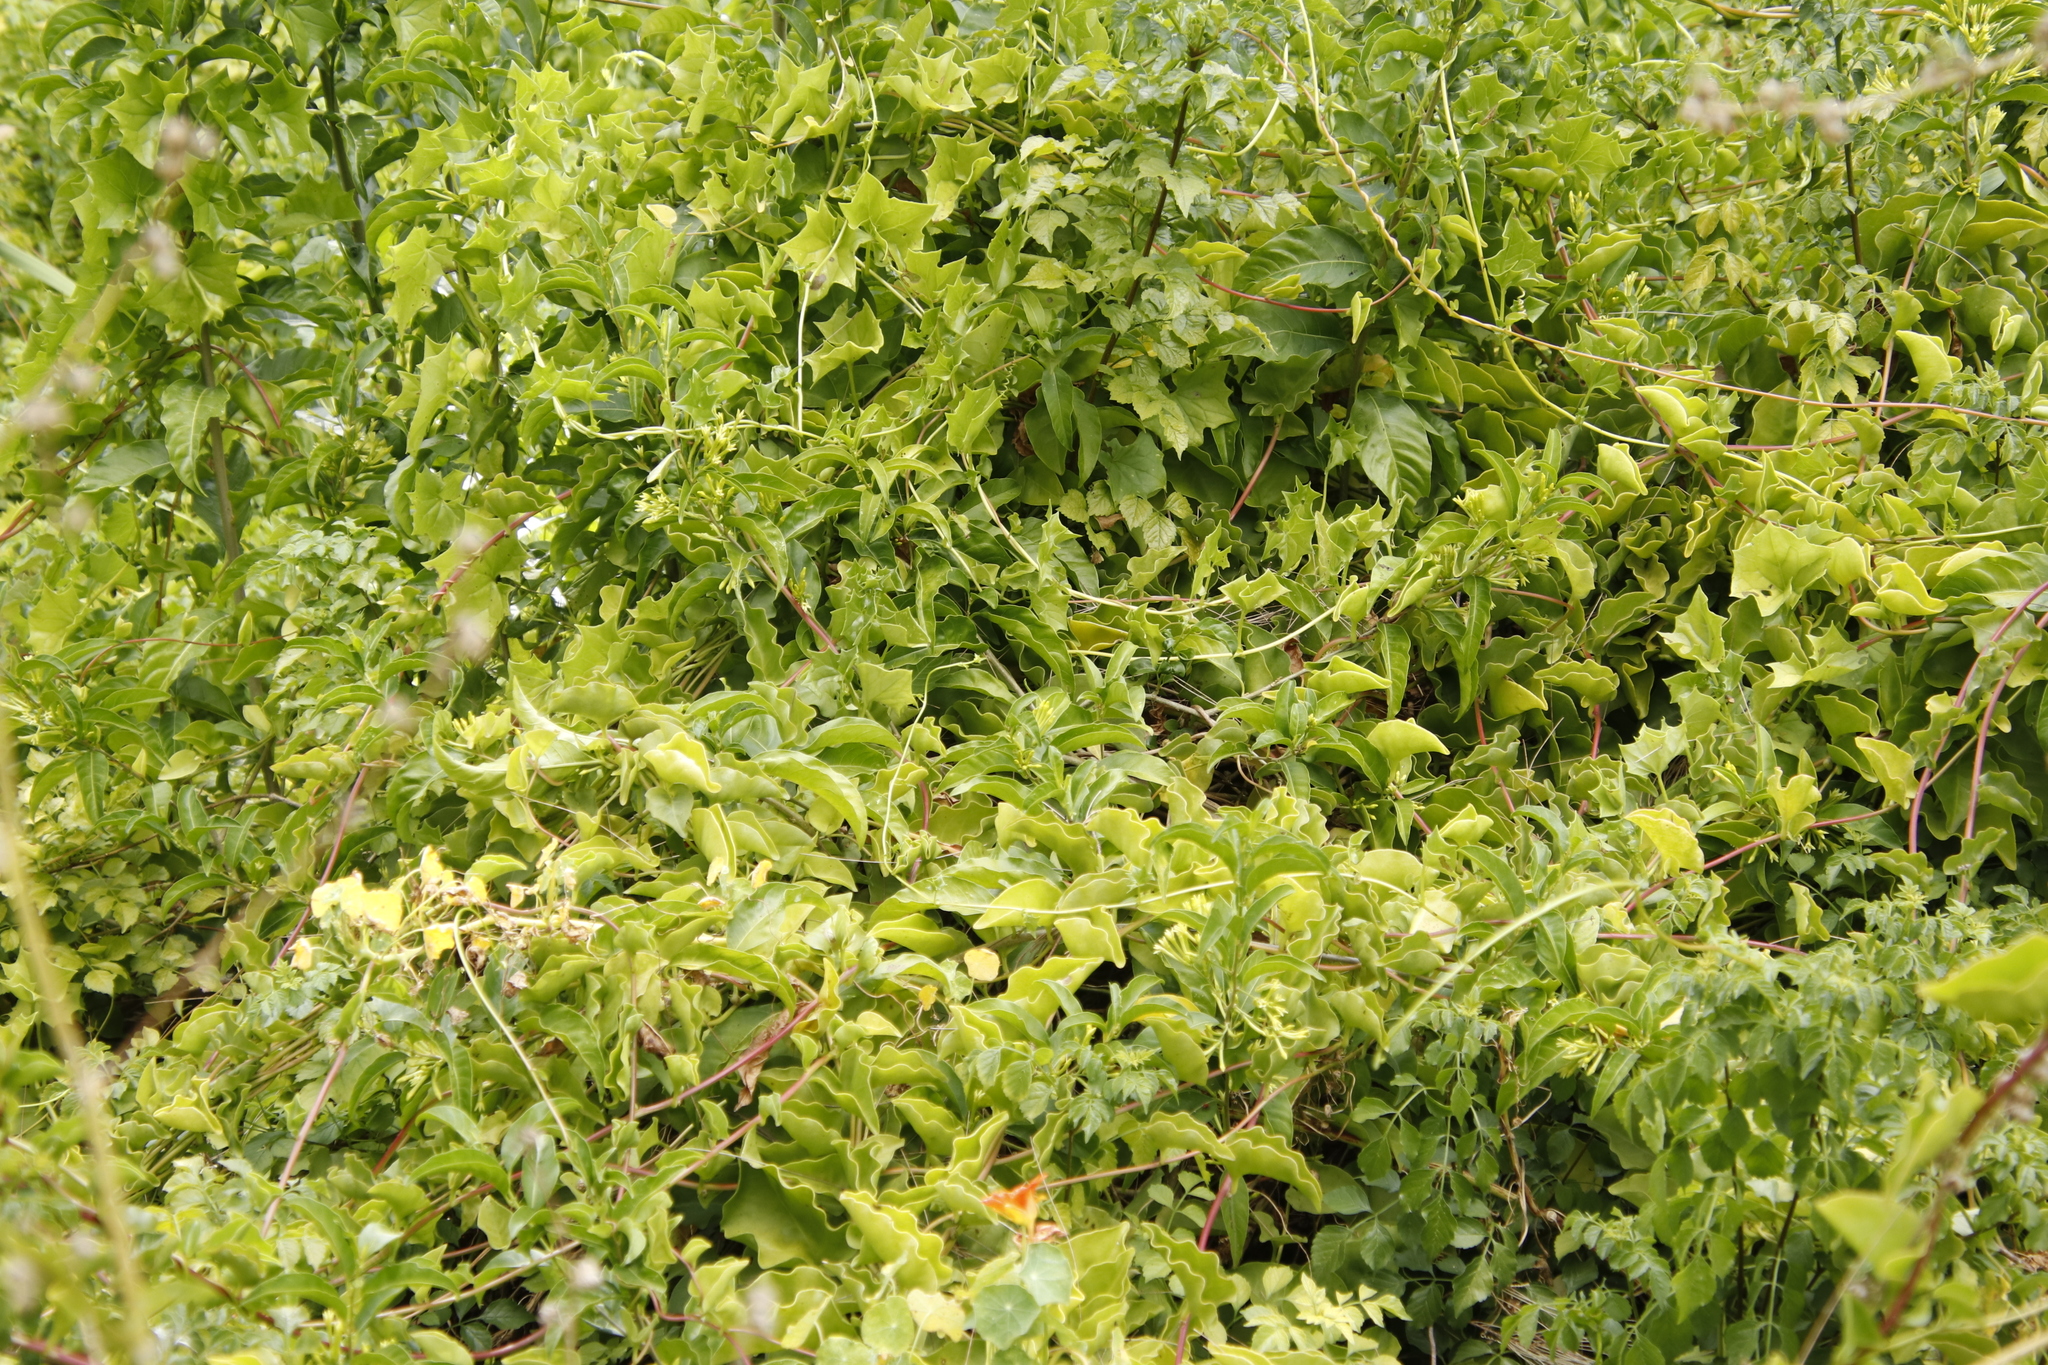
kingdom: Plantae
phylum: Tracheophyta
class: Magnoliopsida
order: Caryophyllales
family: Basellaceae
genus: Anredera
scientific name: Anredera cordifolia
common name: Heartleaf madeiravine
